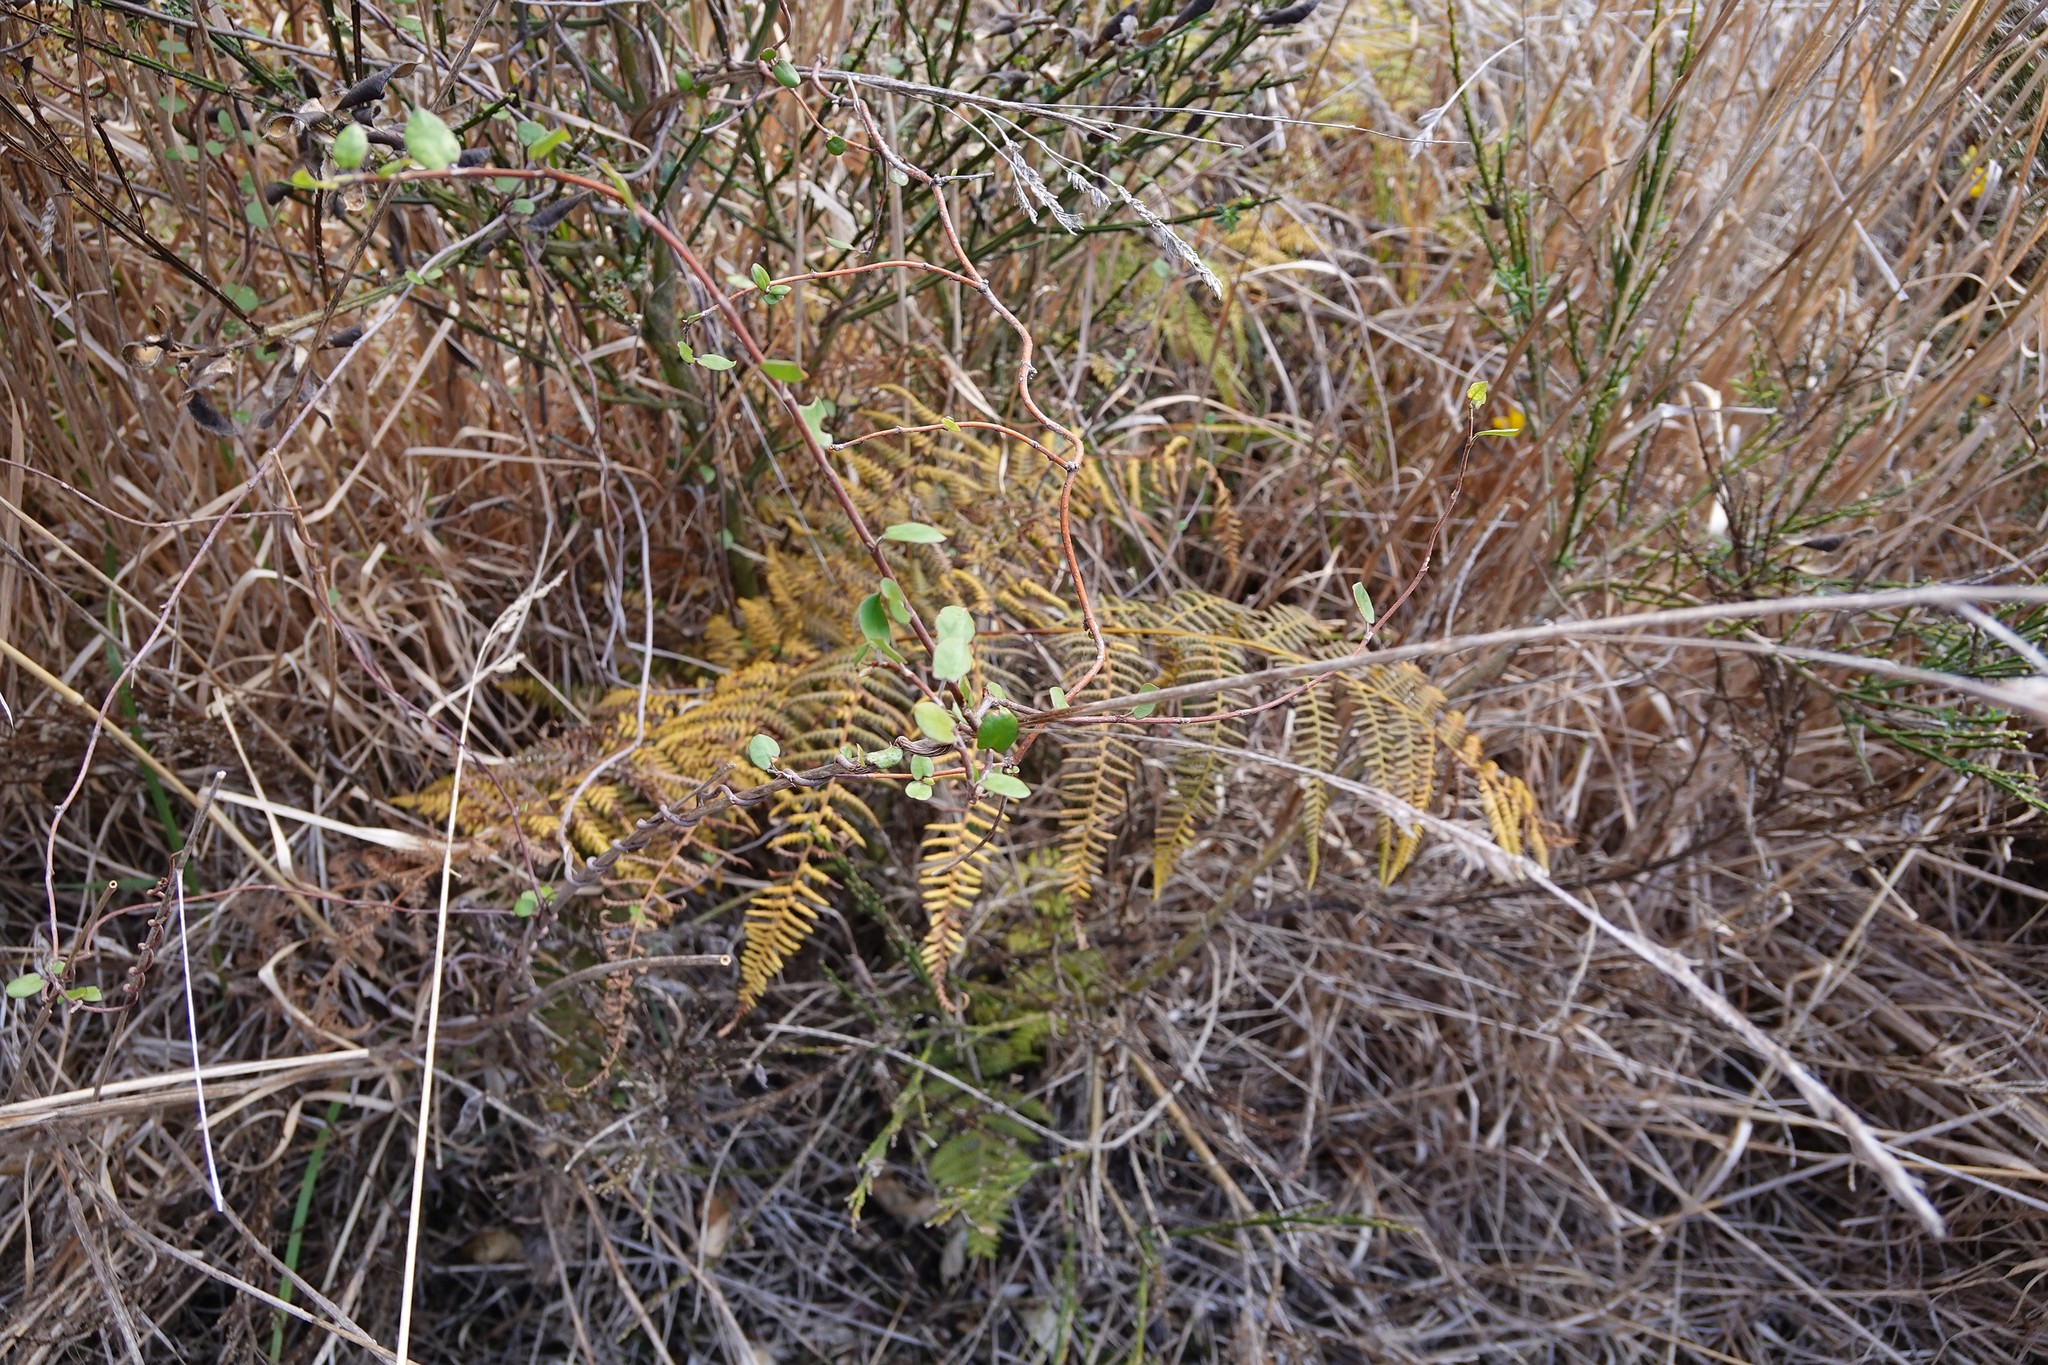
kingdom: Plantae
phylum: Tracheophyta
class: Magnoliopsida
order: Caryophyllales
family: Polygonaceae
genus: Muehlenbeckia
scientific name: Muehlenbeckia complexa
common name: Wireplant
